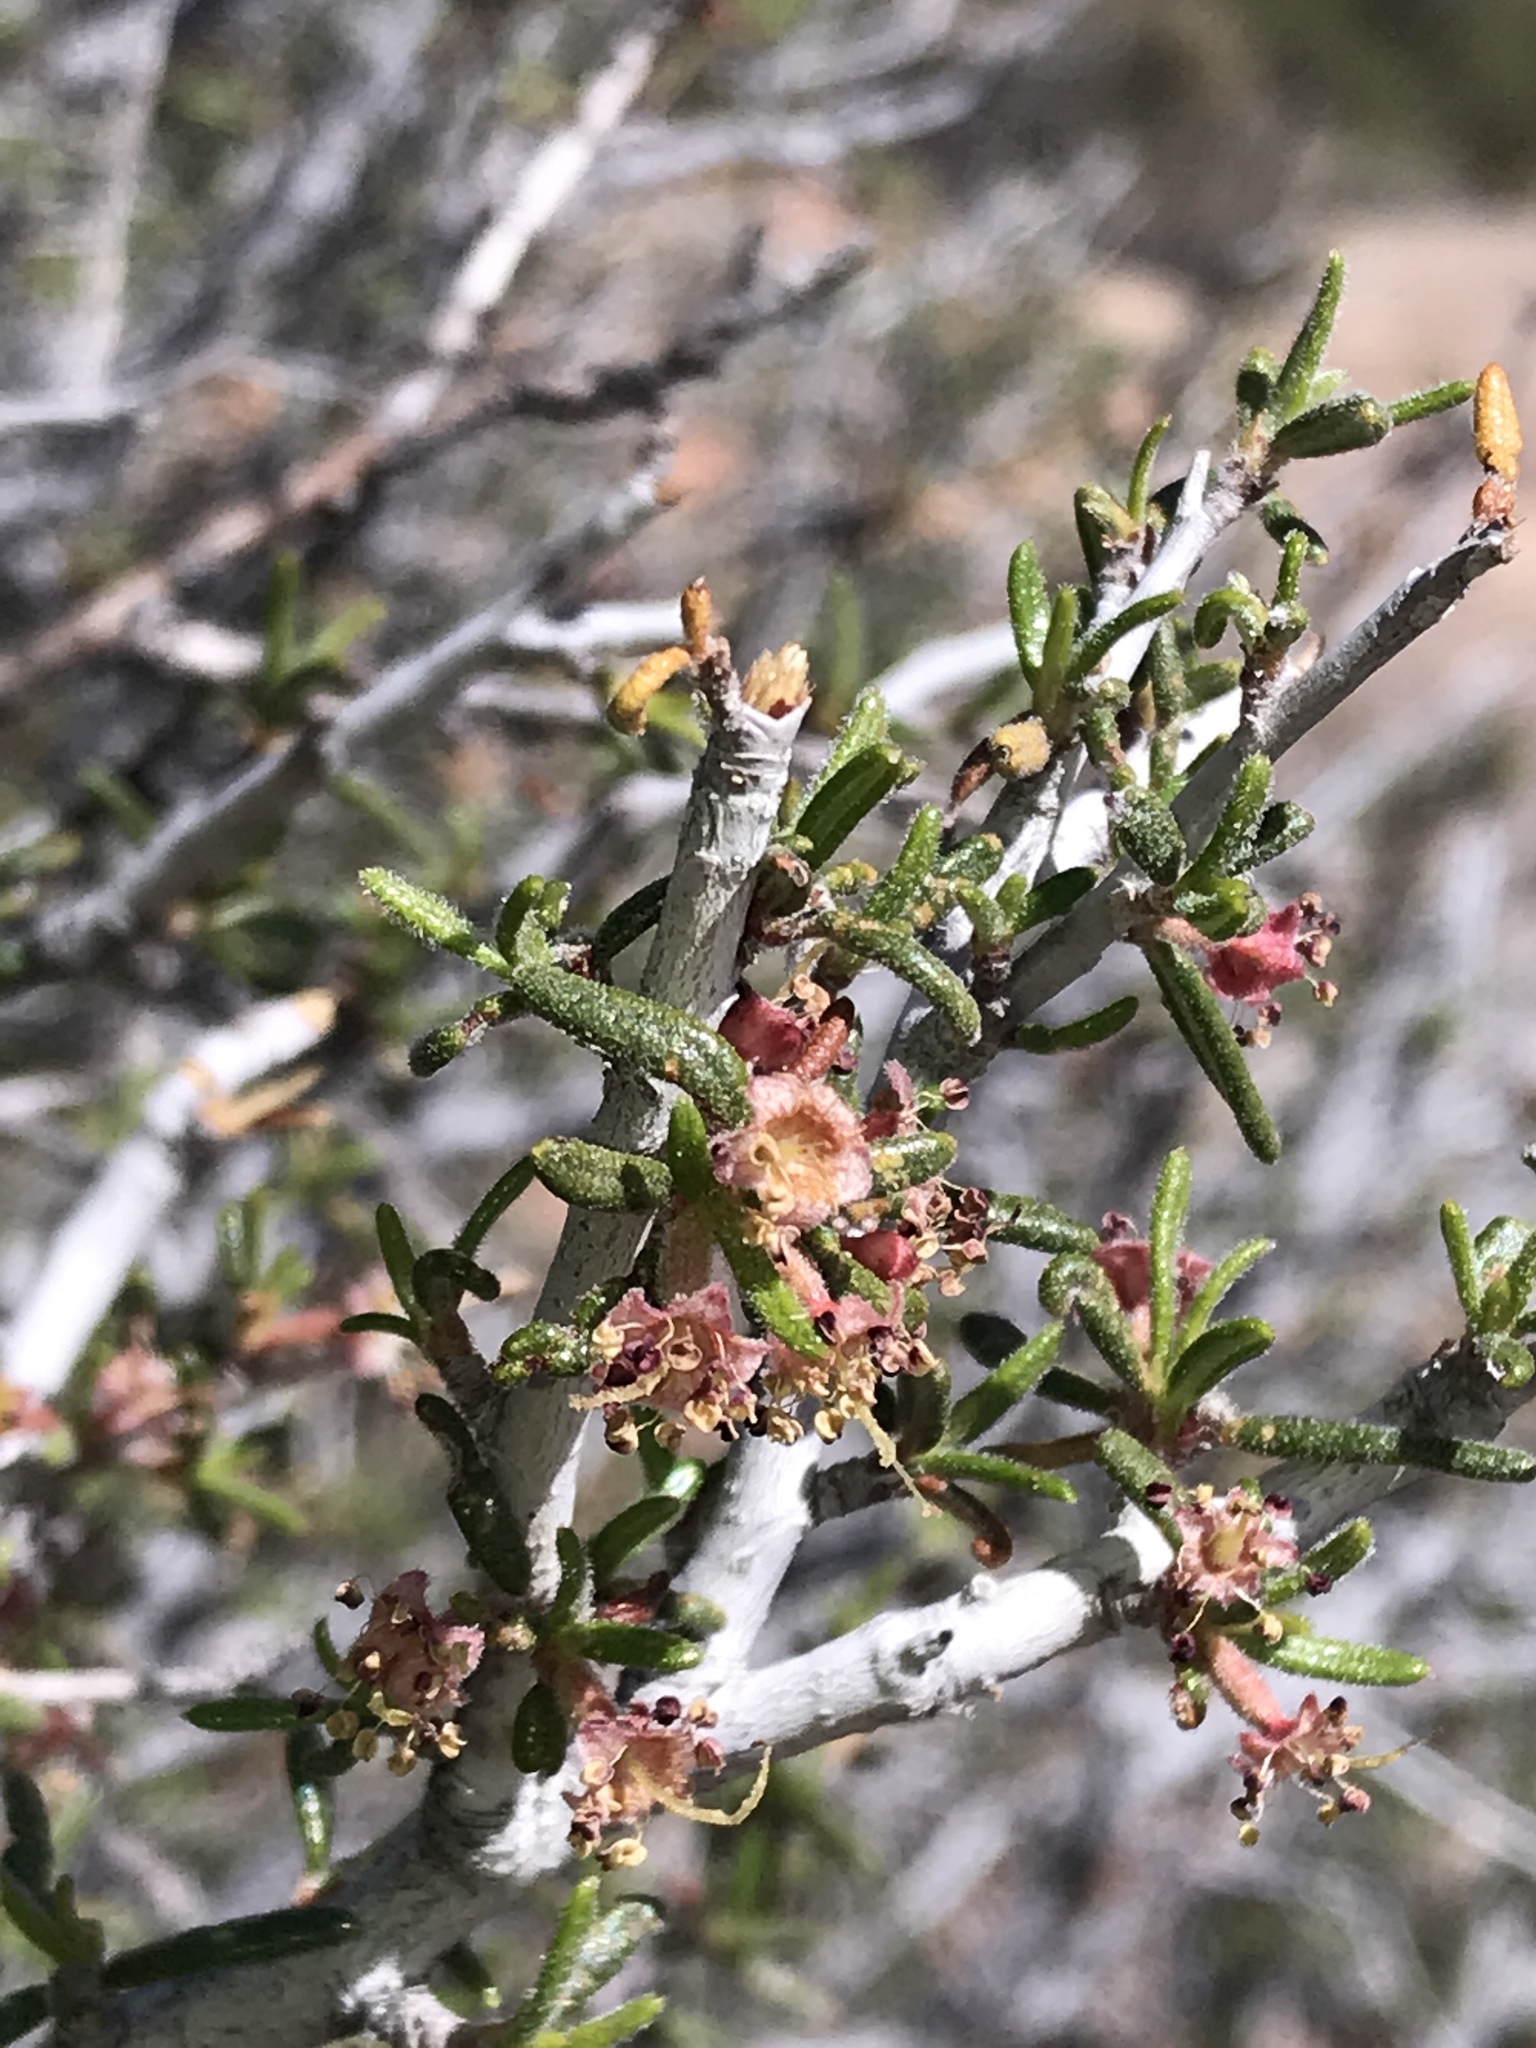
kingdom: Plantae
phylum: Tracheophyta
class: Magnoliopsida
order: Rosales
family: Rosaceae
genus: Cercocarpus
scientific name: Cercocarpus intricatus
